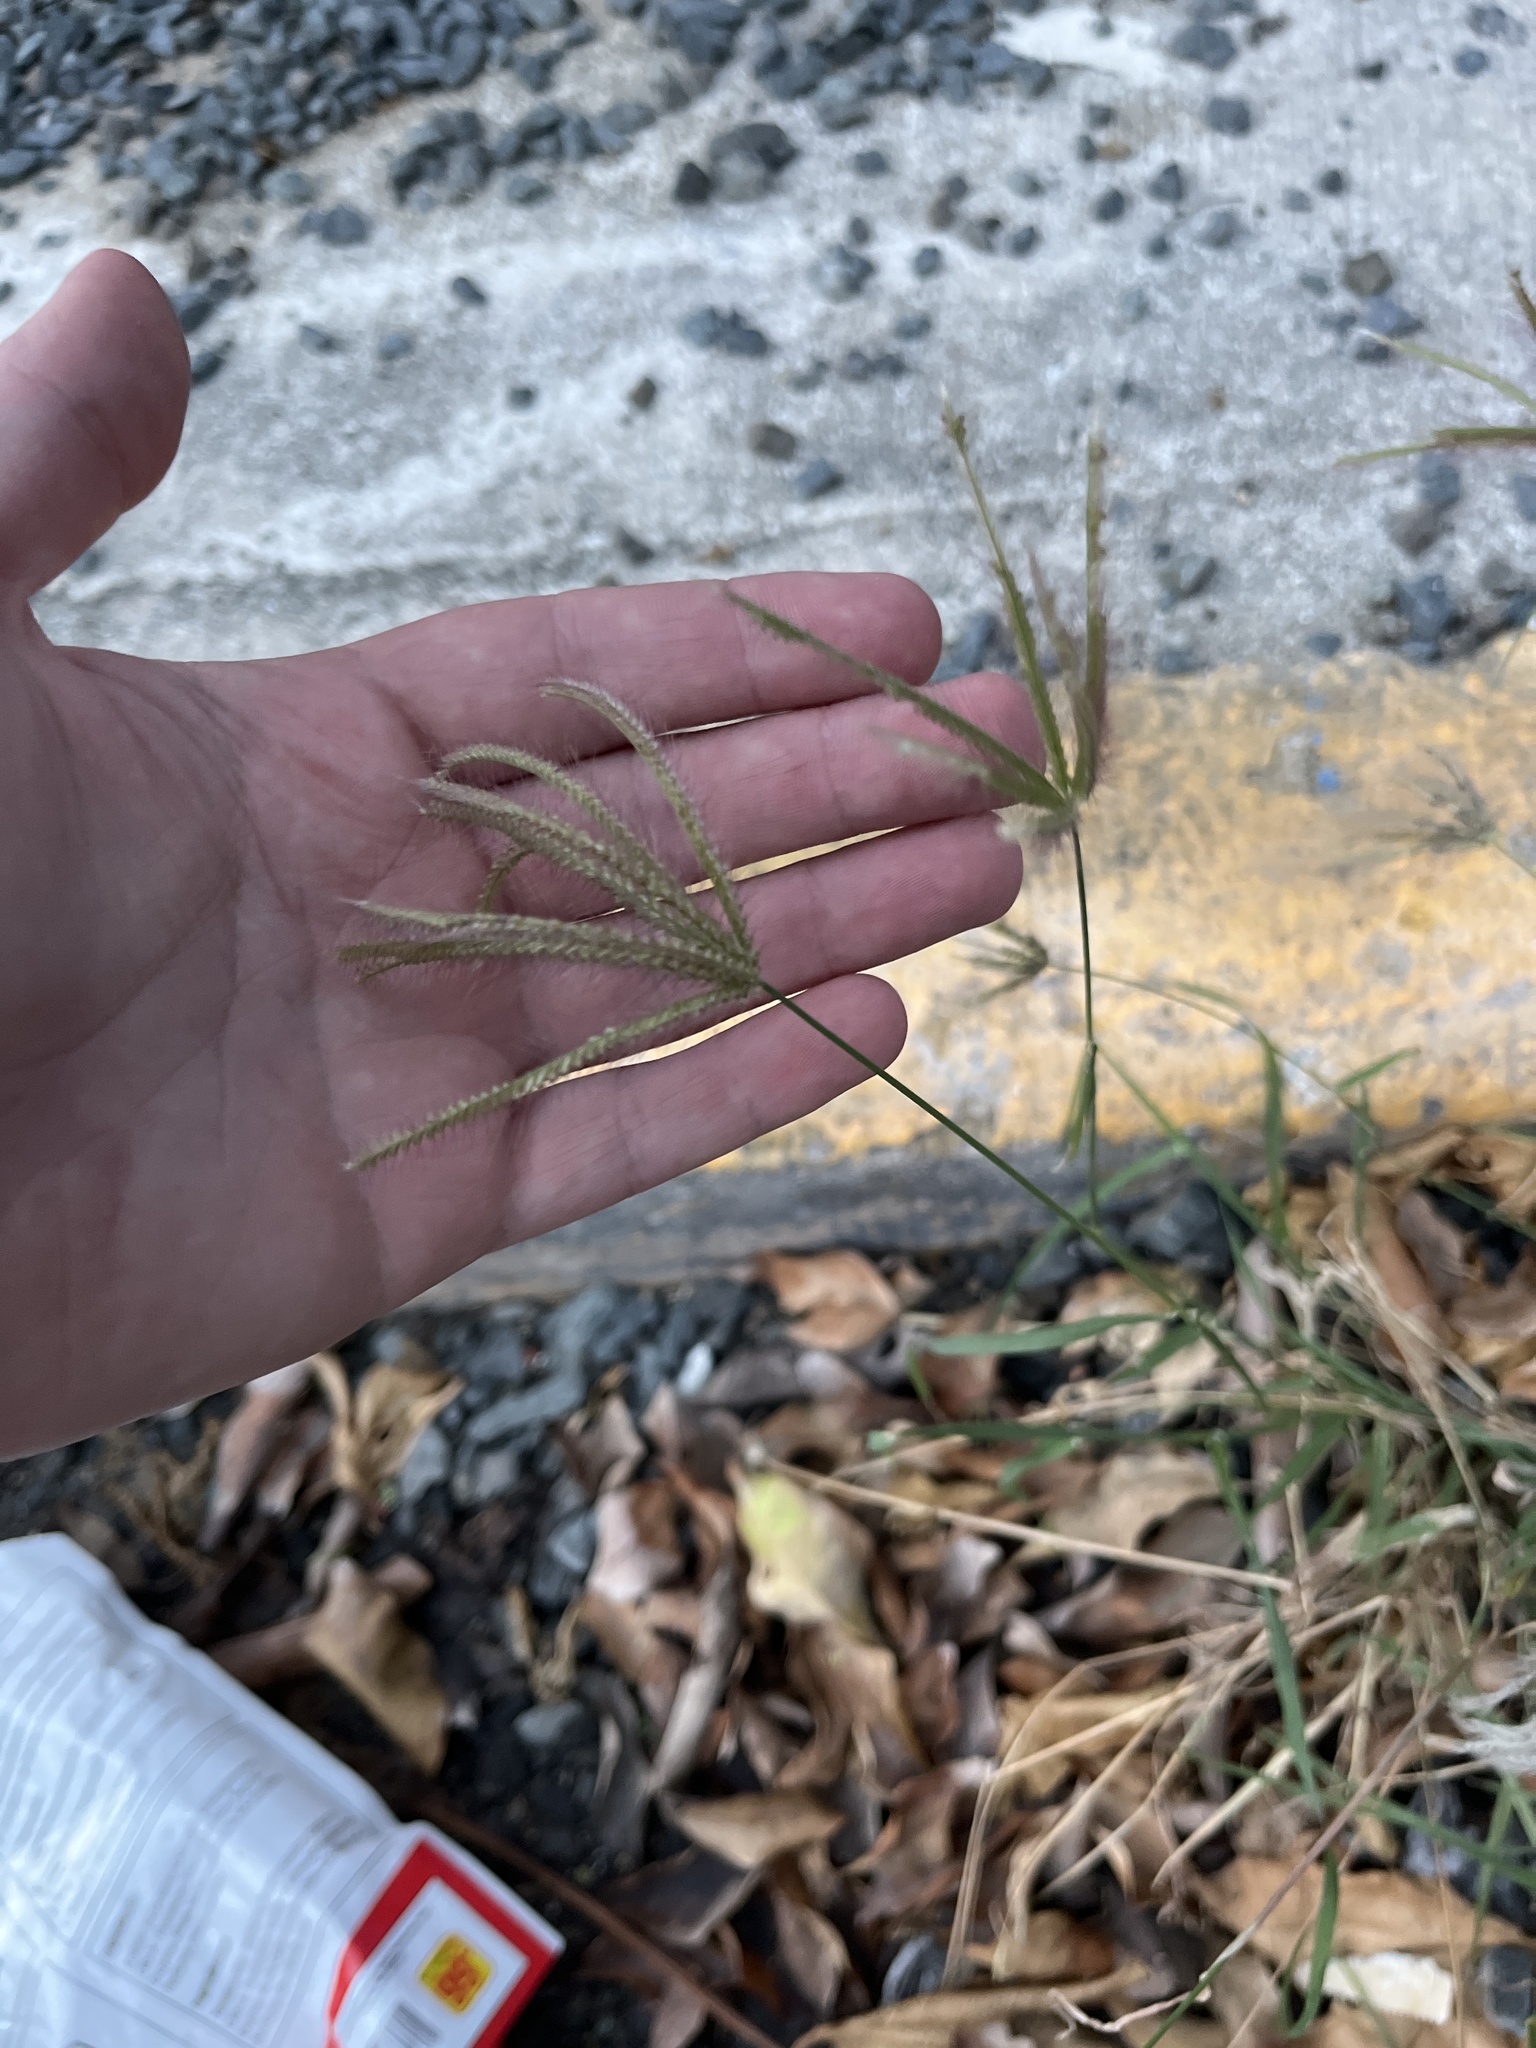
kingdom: Plantae
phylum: Tracheophyta
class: Liliopsida
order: Poales
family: Poaceae
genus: Chloris
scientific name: Chloris barbata
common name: Swollen fingergrass
